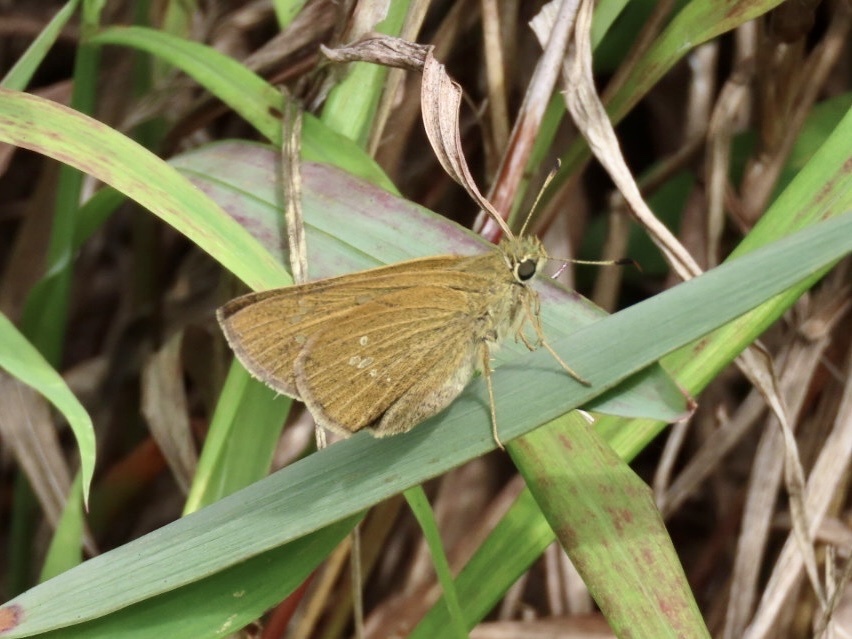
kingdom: Animalia
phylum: Arthropoda
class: Insecta
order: Lepidoptera
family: Hesperiidae
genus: Polytremis
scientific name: Polytremis lubricans
